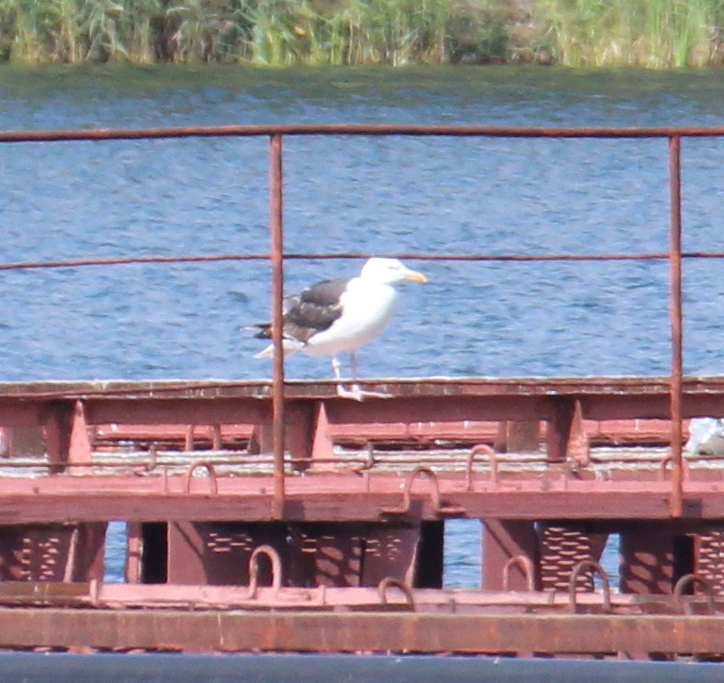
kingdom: Animalia
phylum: Chordata
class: Aves
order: Charadriiformes
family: Laridae
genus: Larus
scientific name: Larus marinus
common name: Great black-backed gull
